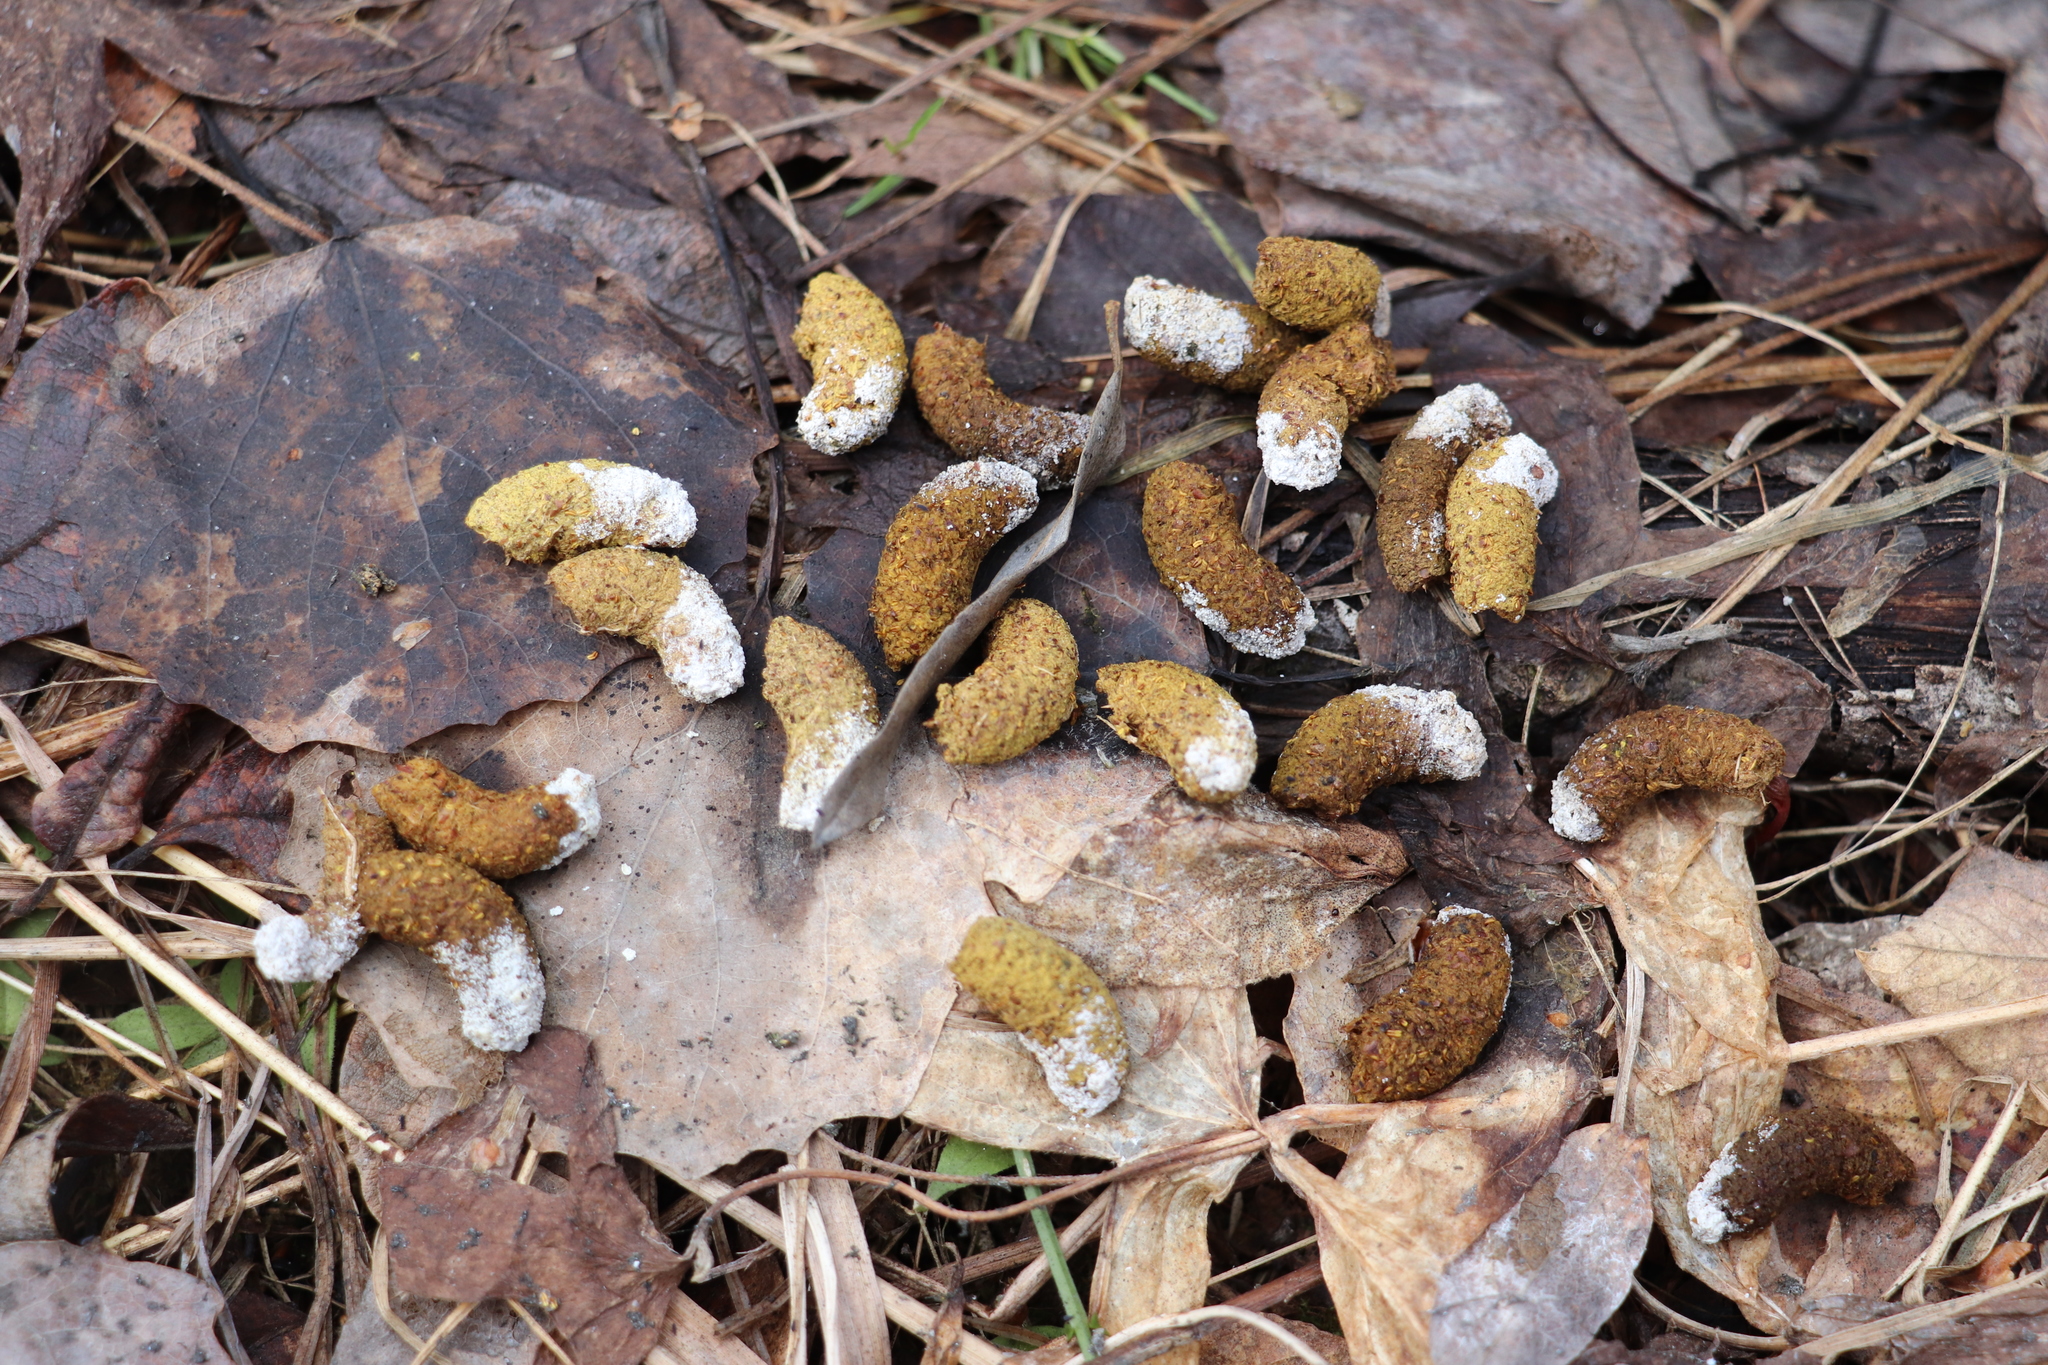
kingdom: Animalia
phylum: Chordata
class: Aves
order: Galliformes
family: Phasianidae
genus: Tetrastes
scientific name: Tetrastes bonasia
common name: Hazel grouse
